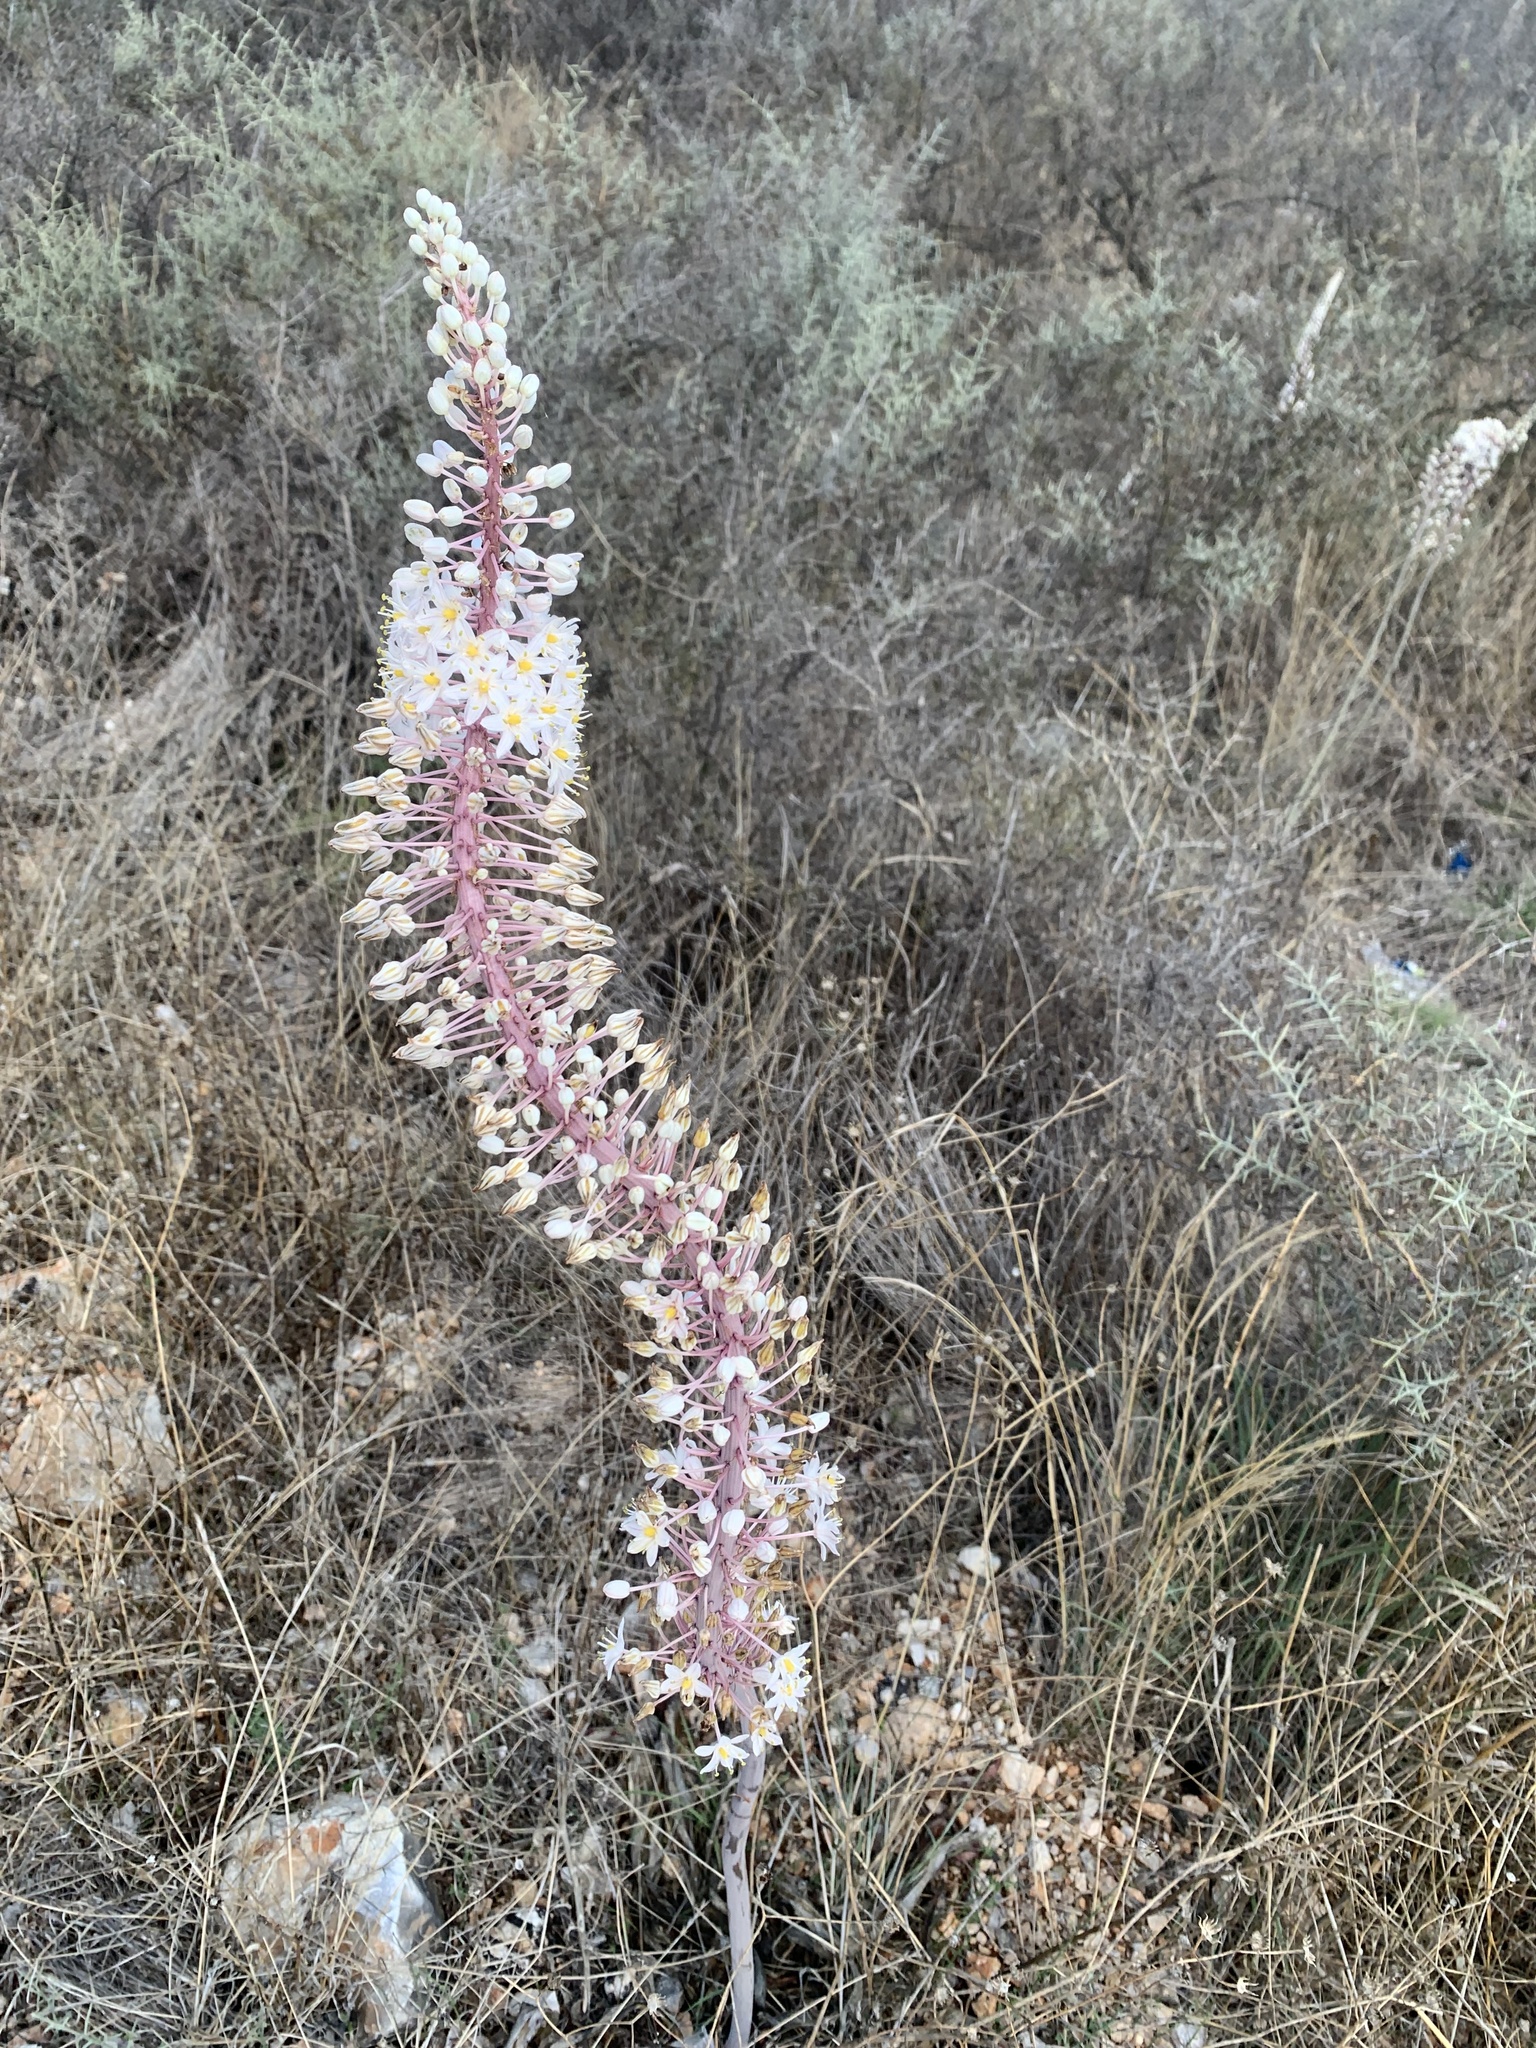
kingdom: Plantae
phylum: Tracheophyta
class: Liliopsida
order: Asparagales
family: Asparagaceae
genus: Drimia
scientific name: Drimia numidica
